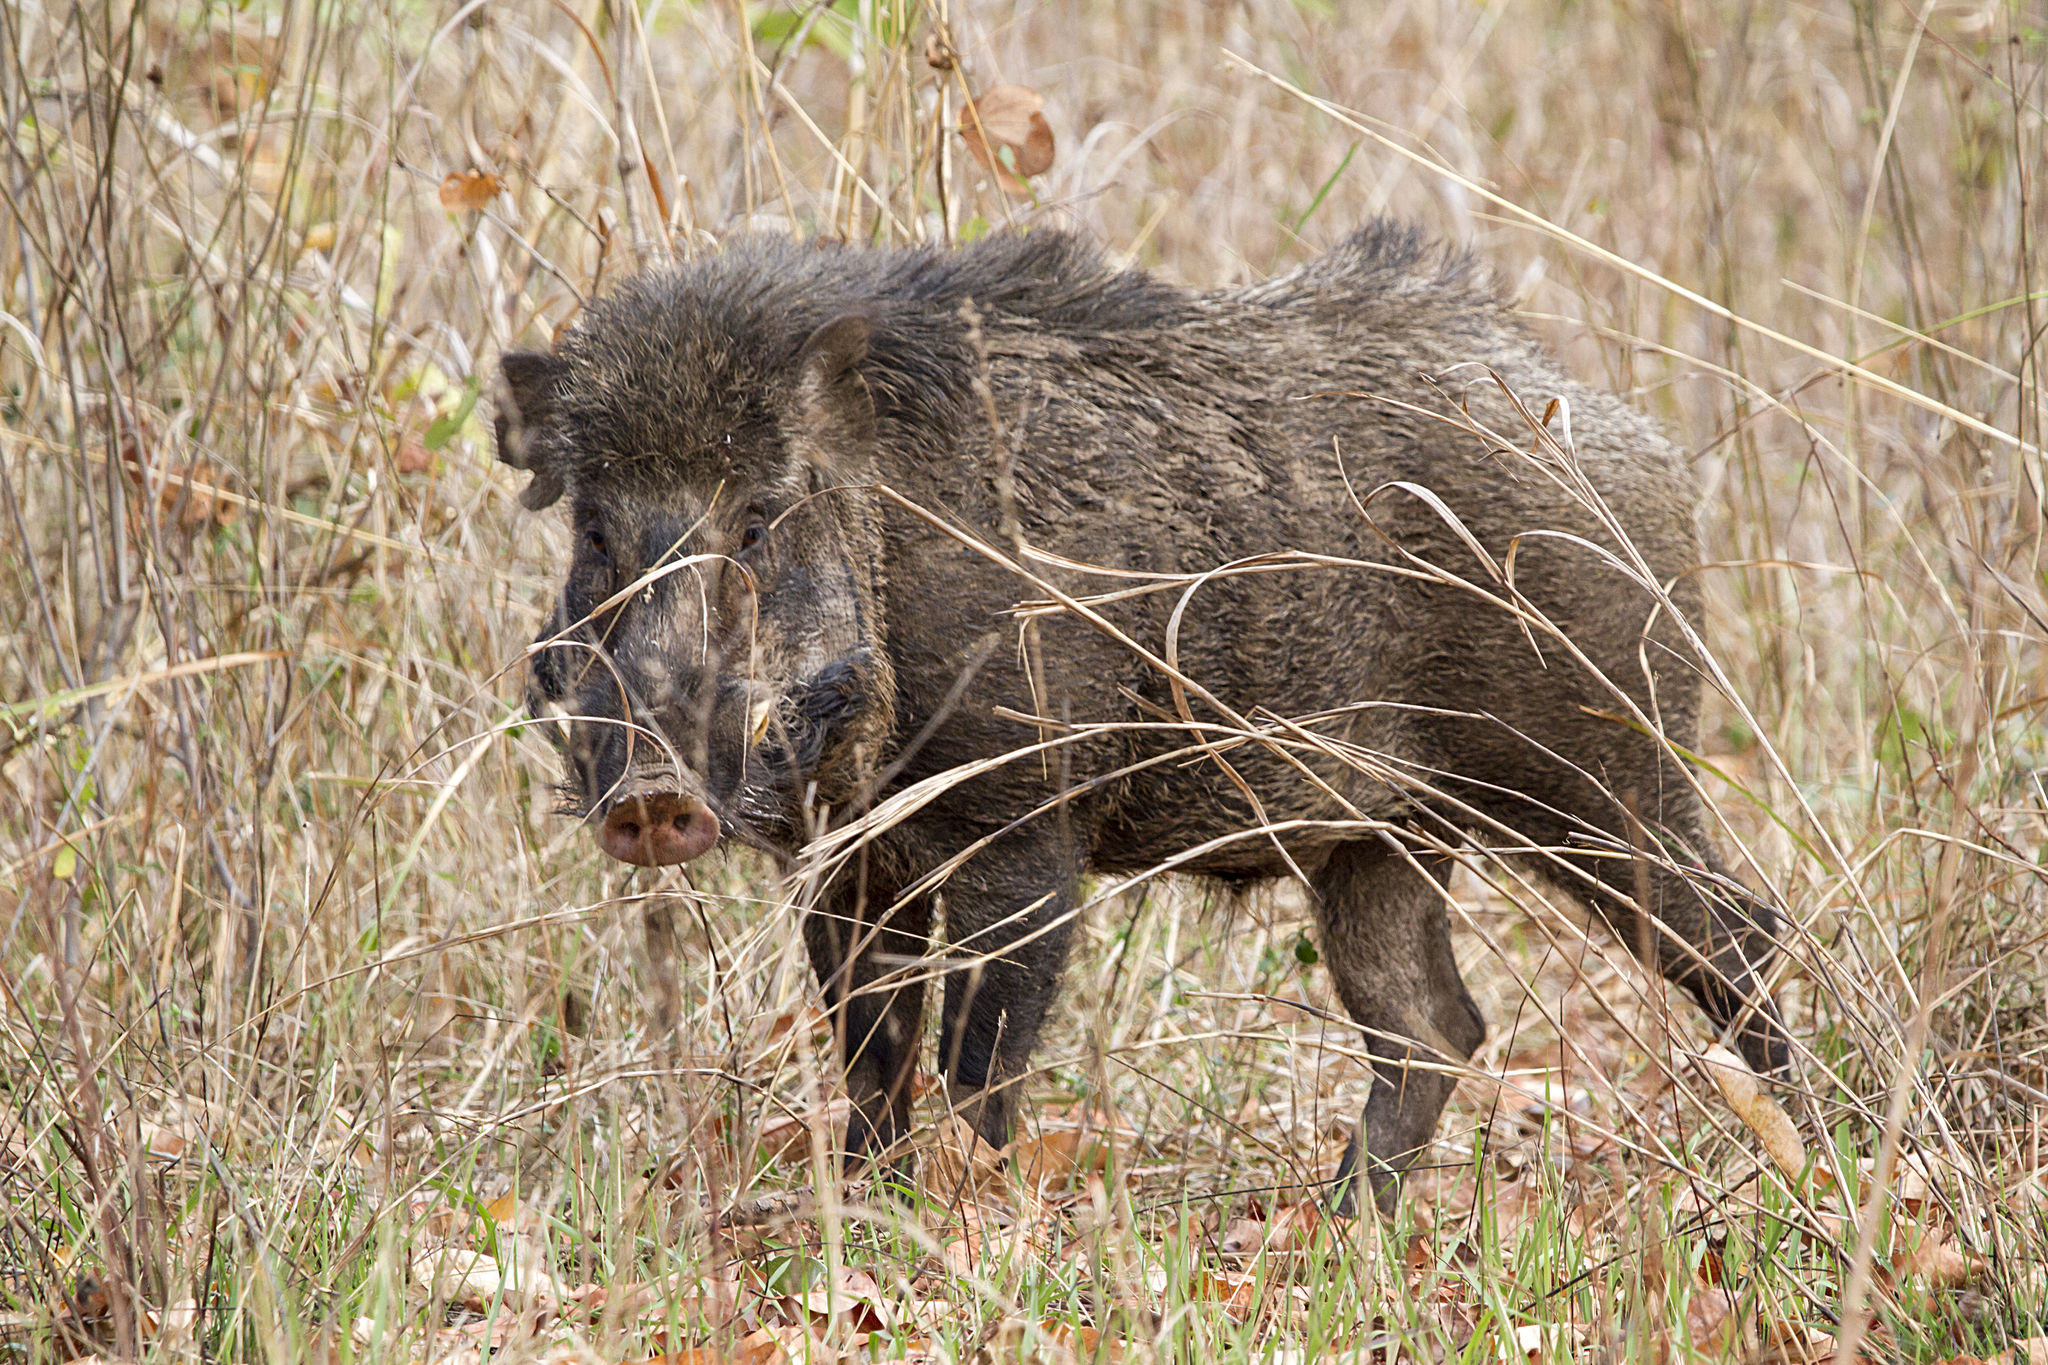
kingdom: Animalia
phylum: Chordata
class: Mammalia
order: Artiodactyla
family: Suidae
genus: Sus
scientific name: Sus scrofa
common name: Wild boar
